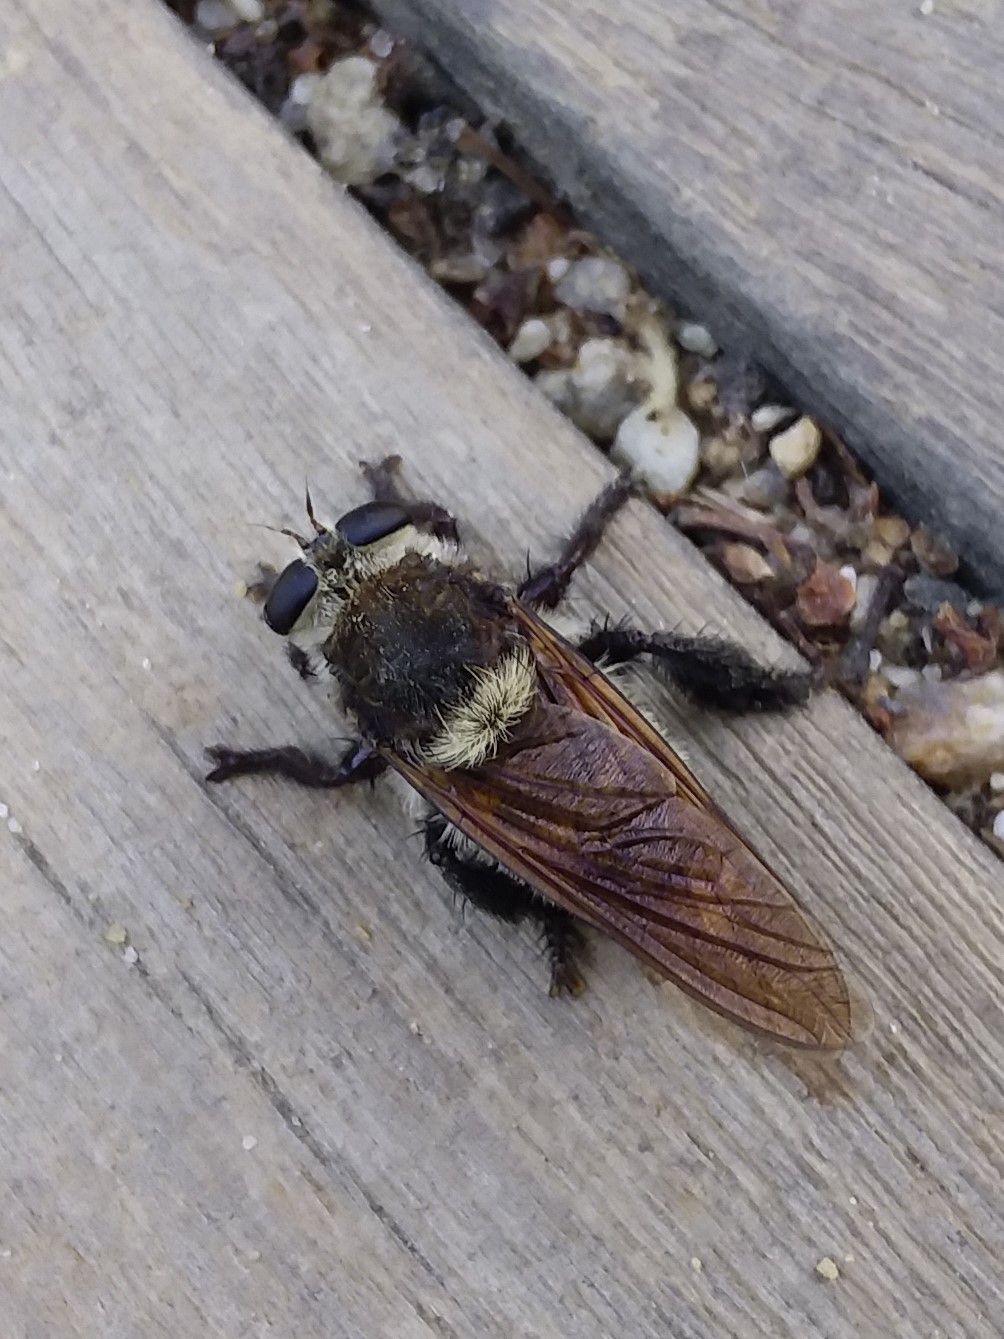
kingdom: Animalia
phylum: Arthropoda
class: Insecta
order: Diptera
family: Asilidae
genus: Mallophora
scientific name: Mallophora fautrix
